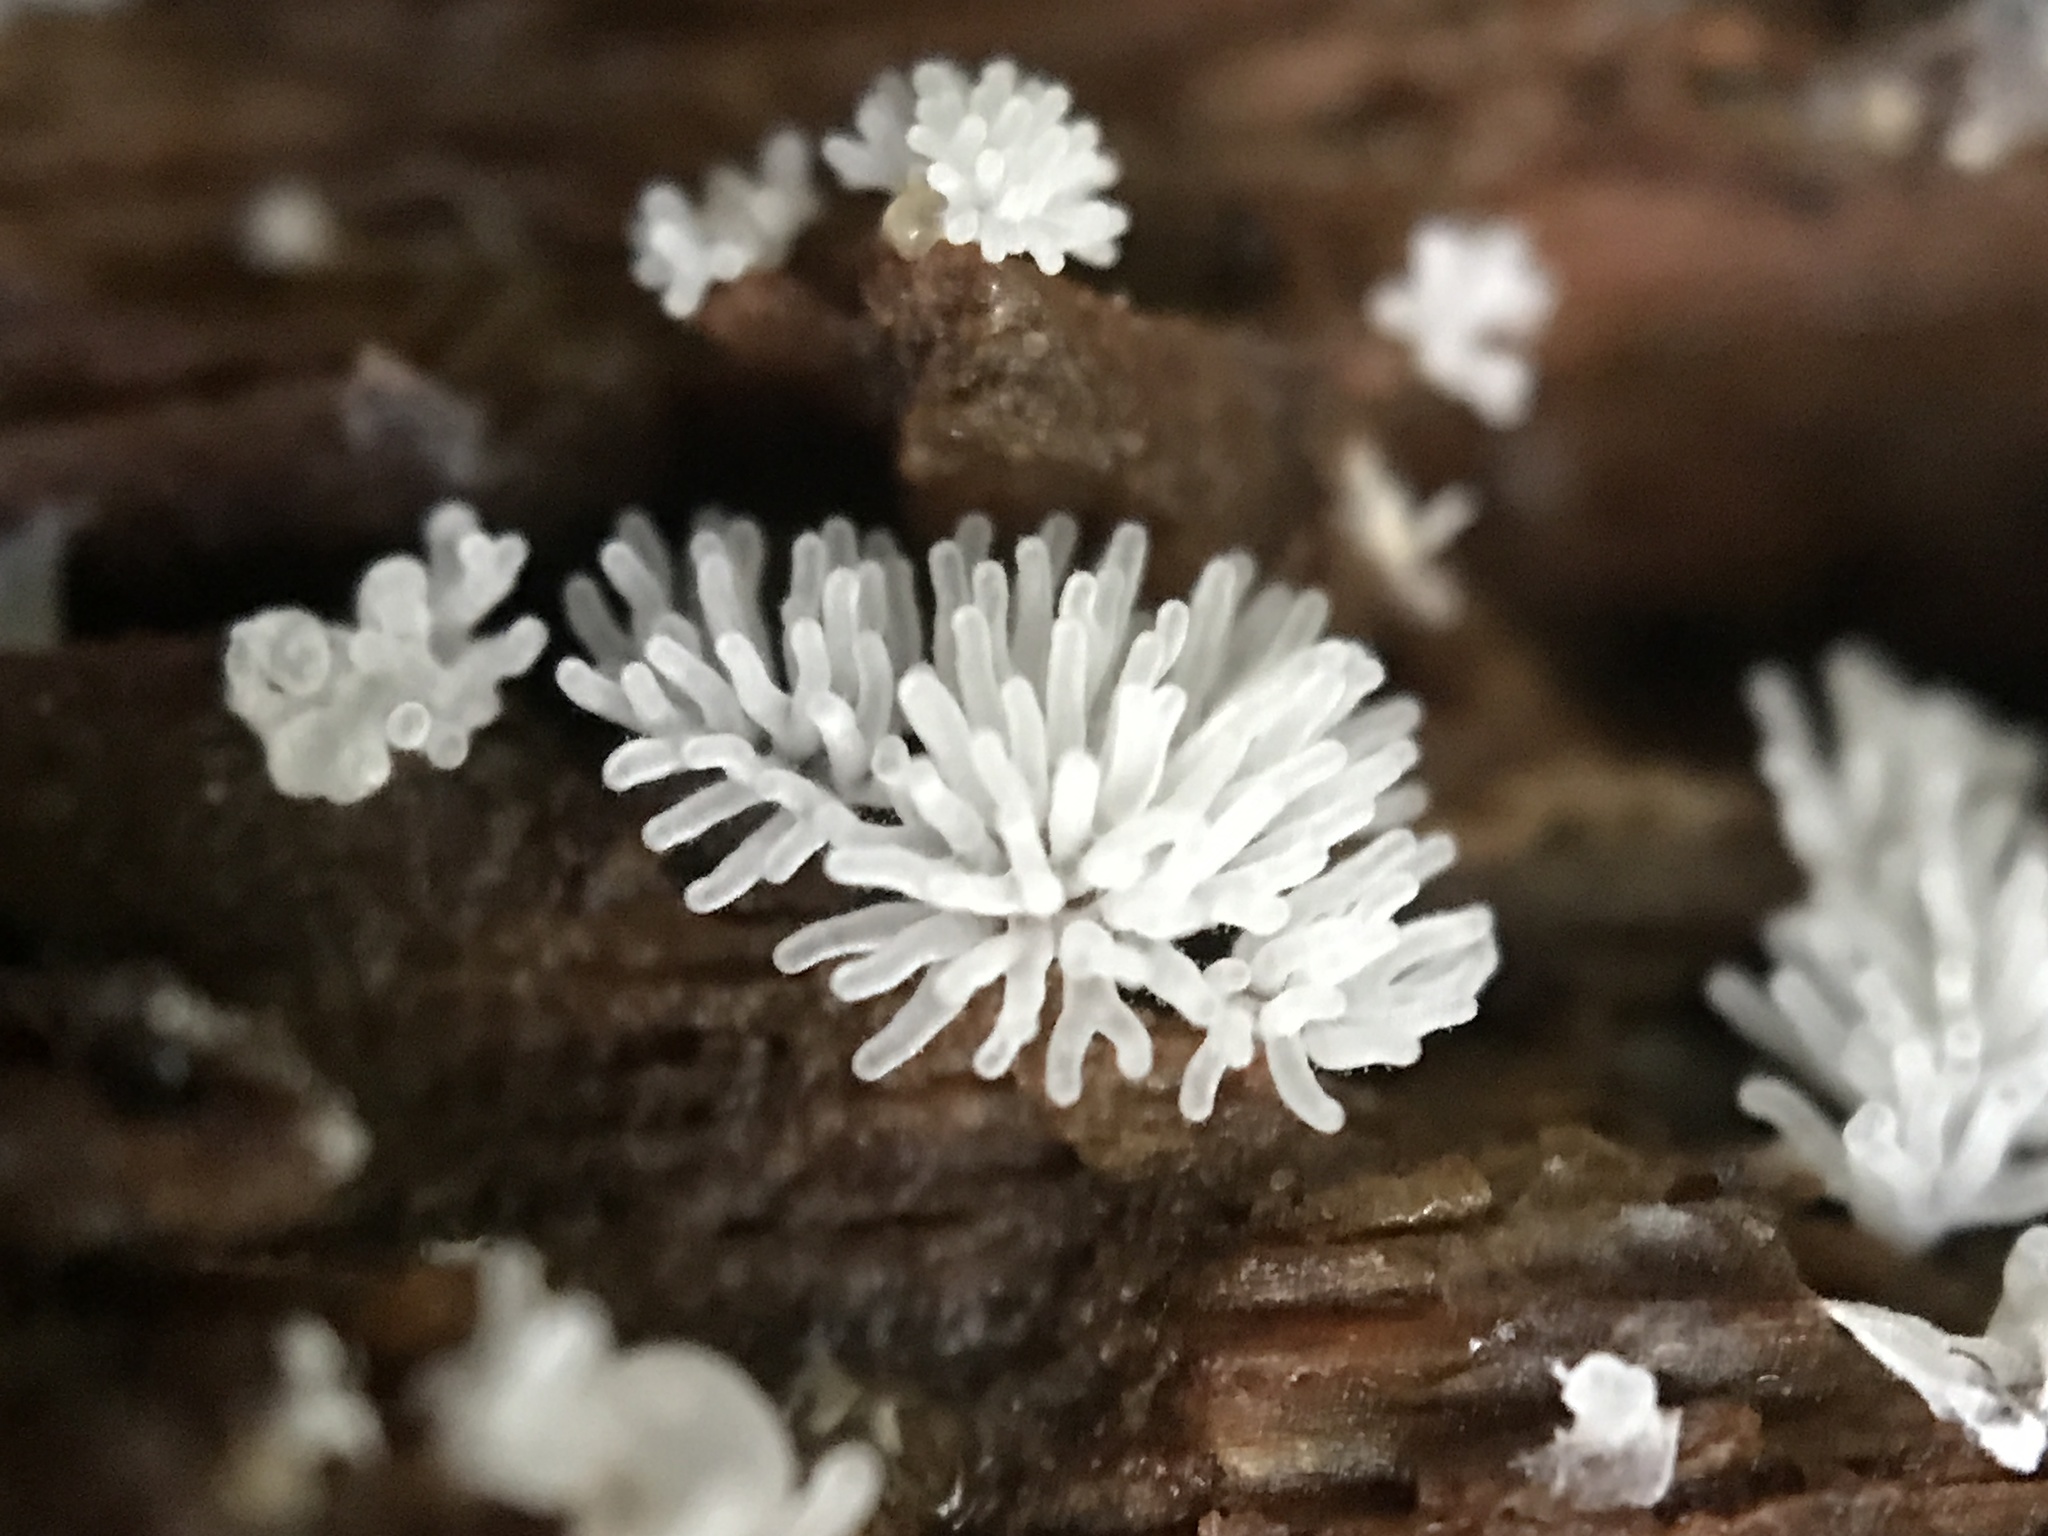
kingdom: Protozoa
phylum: Mycetozoa
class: Protosteliomycetes
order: Ceratiomyxales
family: Ceratiomyxaceae
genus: Ceratiomyxa
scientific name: Ceratiomyxa fruticulosa
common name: Honeycomb coral slime mold
